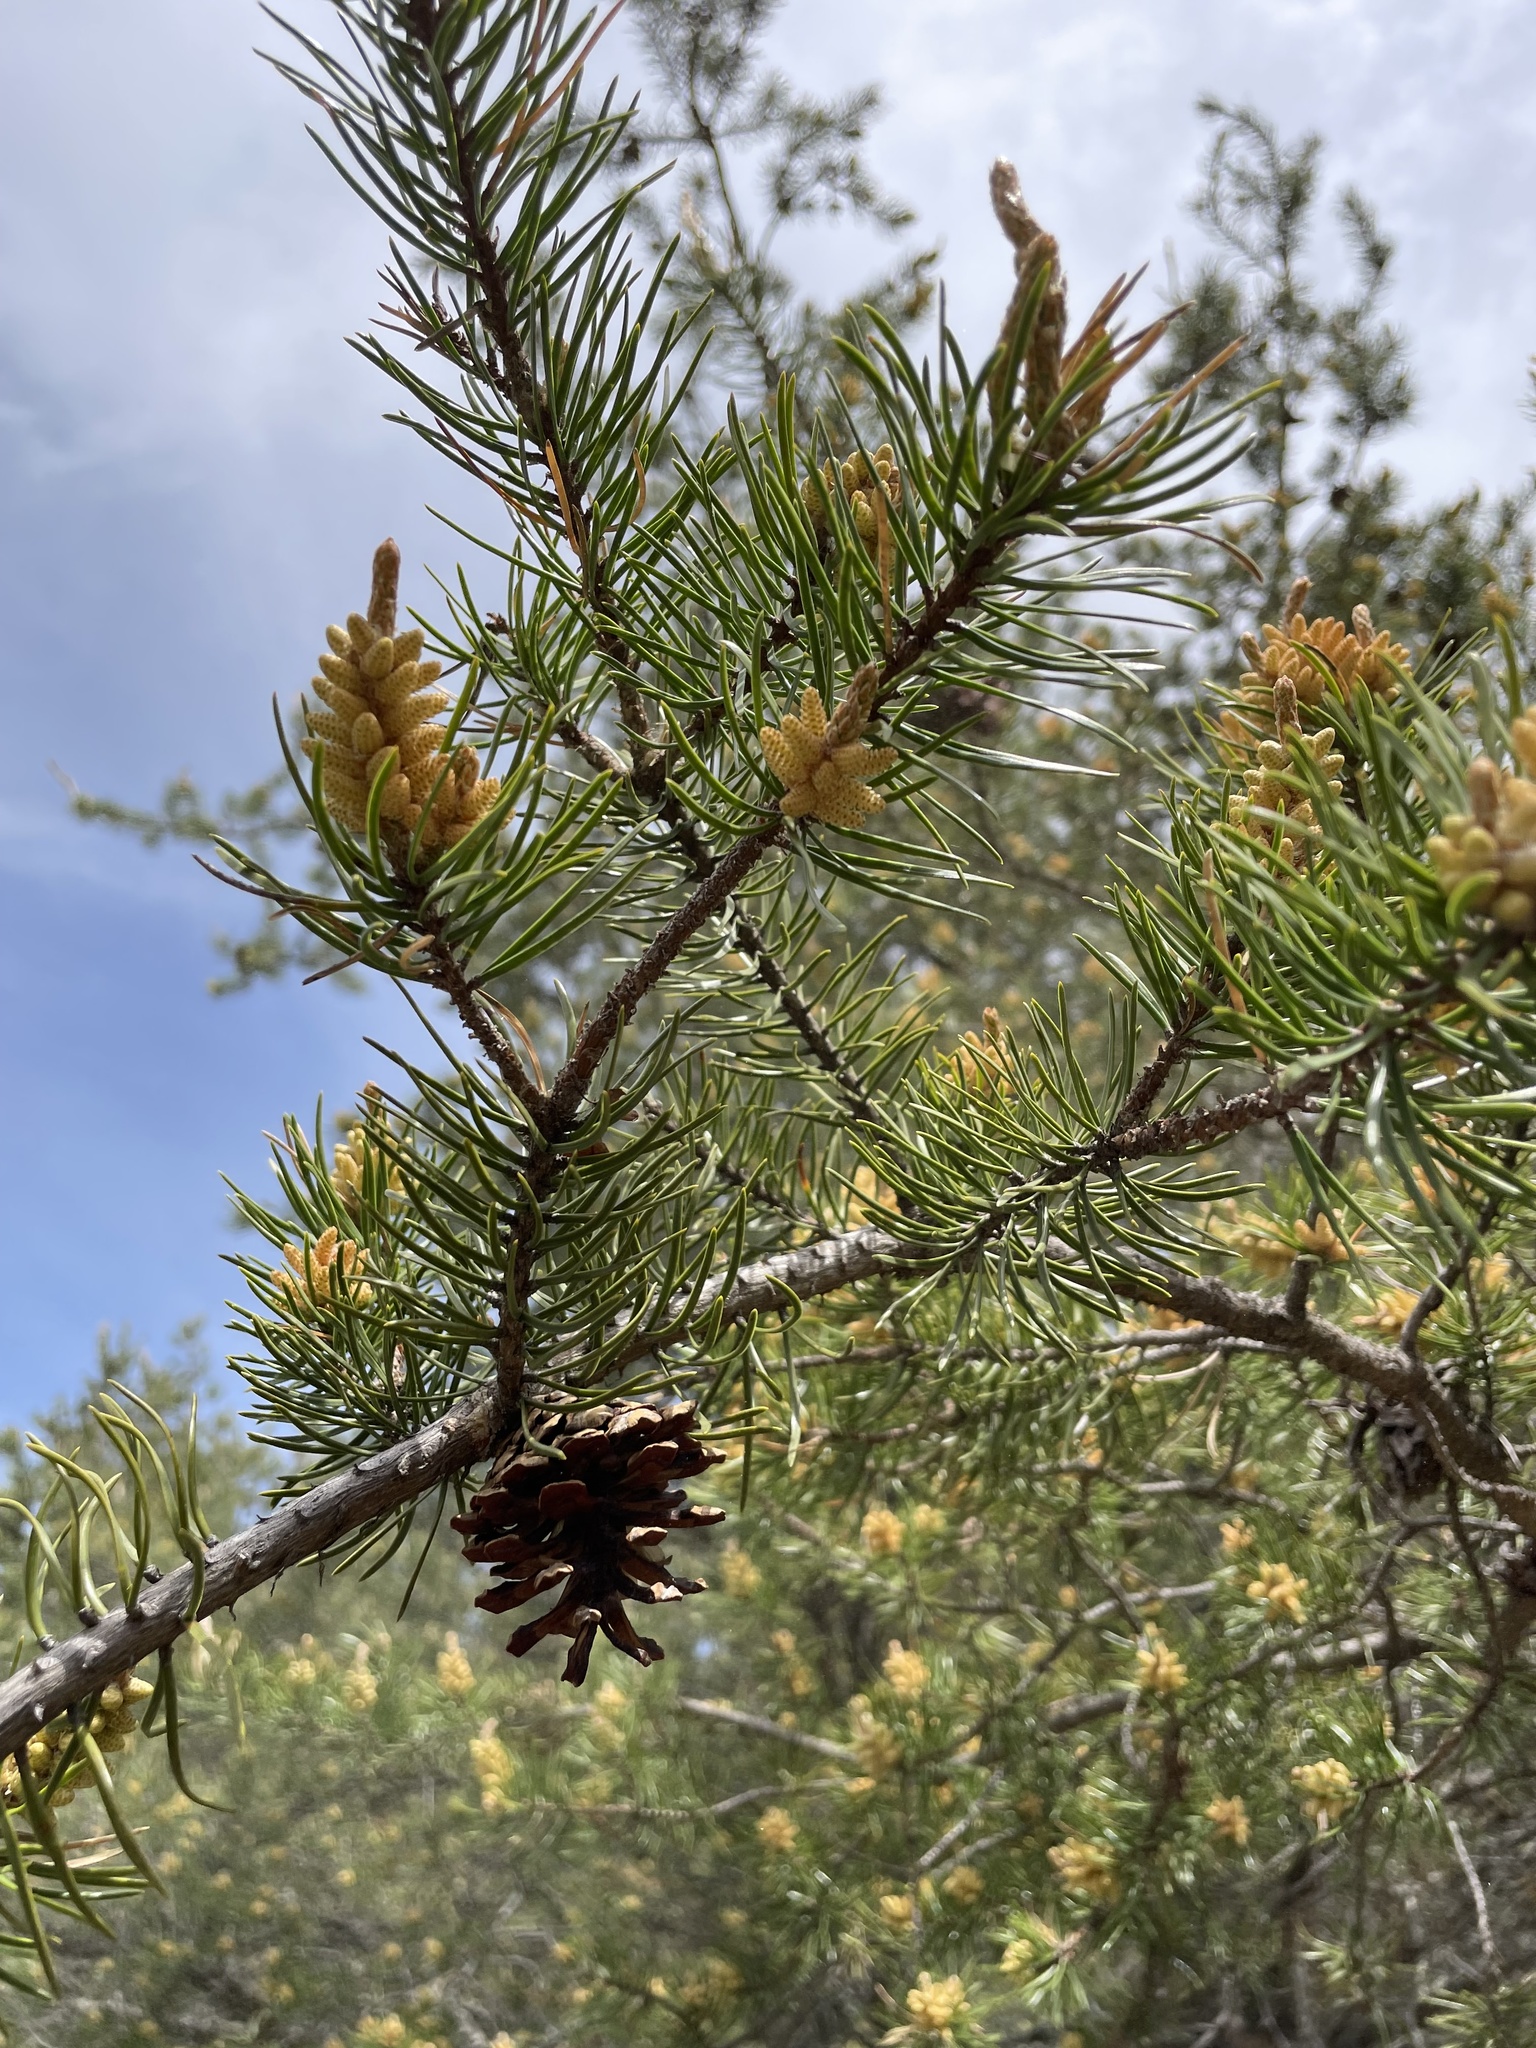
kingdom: Plantae
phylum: Tracheophyta
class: Pinopsida
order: Pinales
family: Pinaceae
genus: Pinus
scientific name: Pinus banksiana
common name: Jack pine
